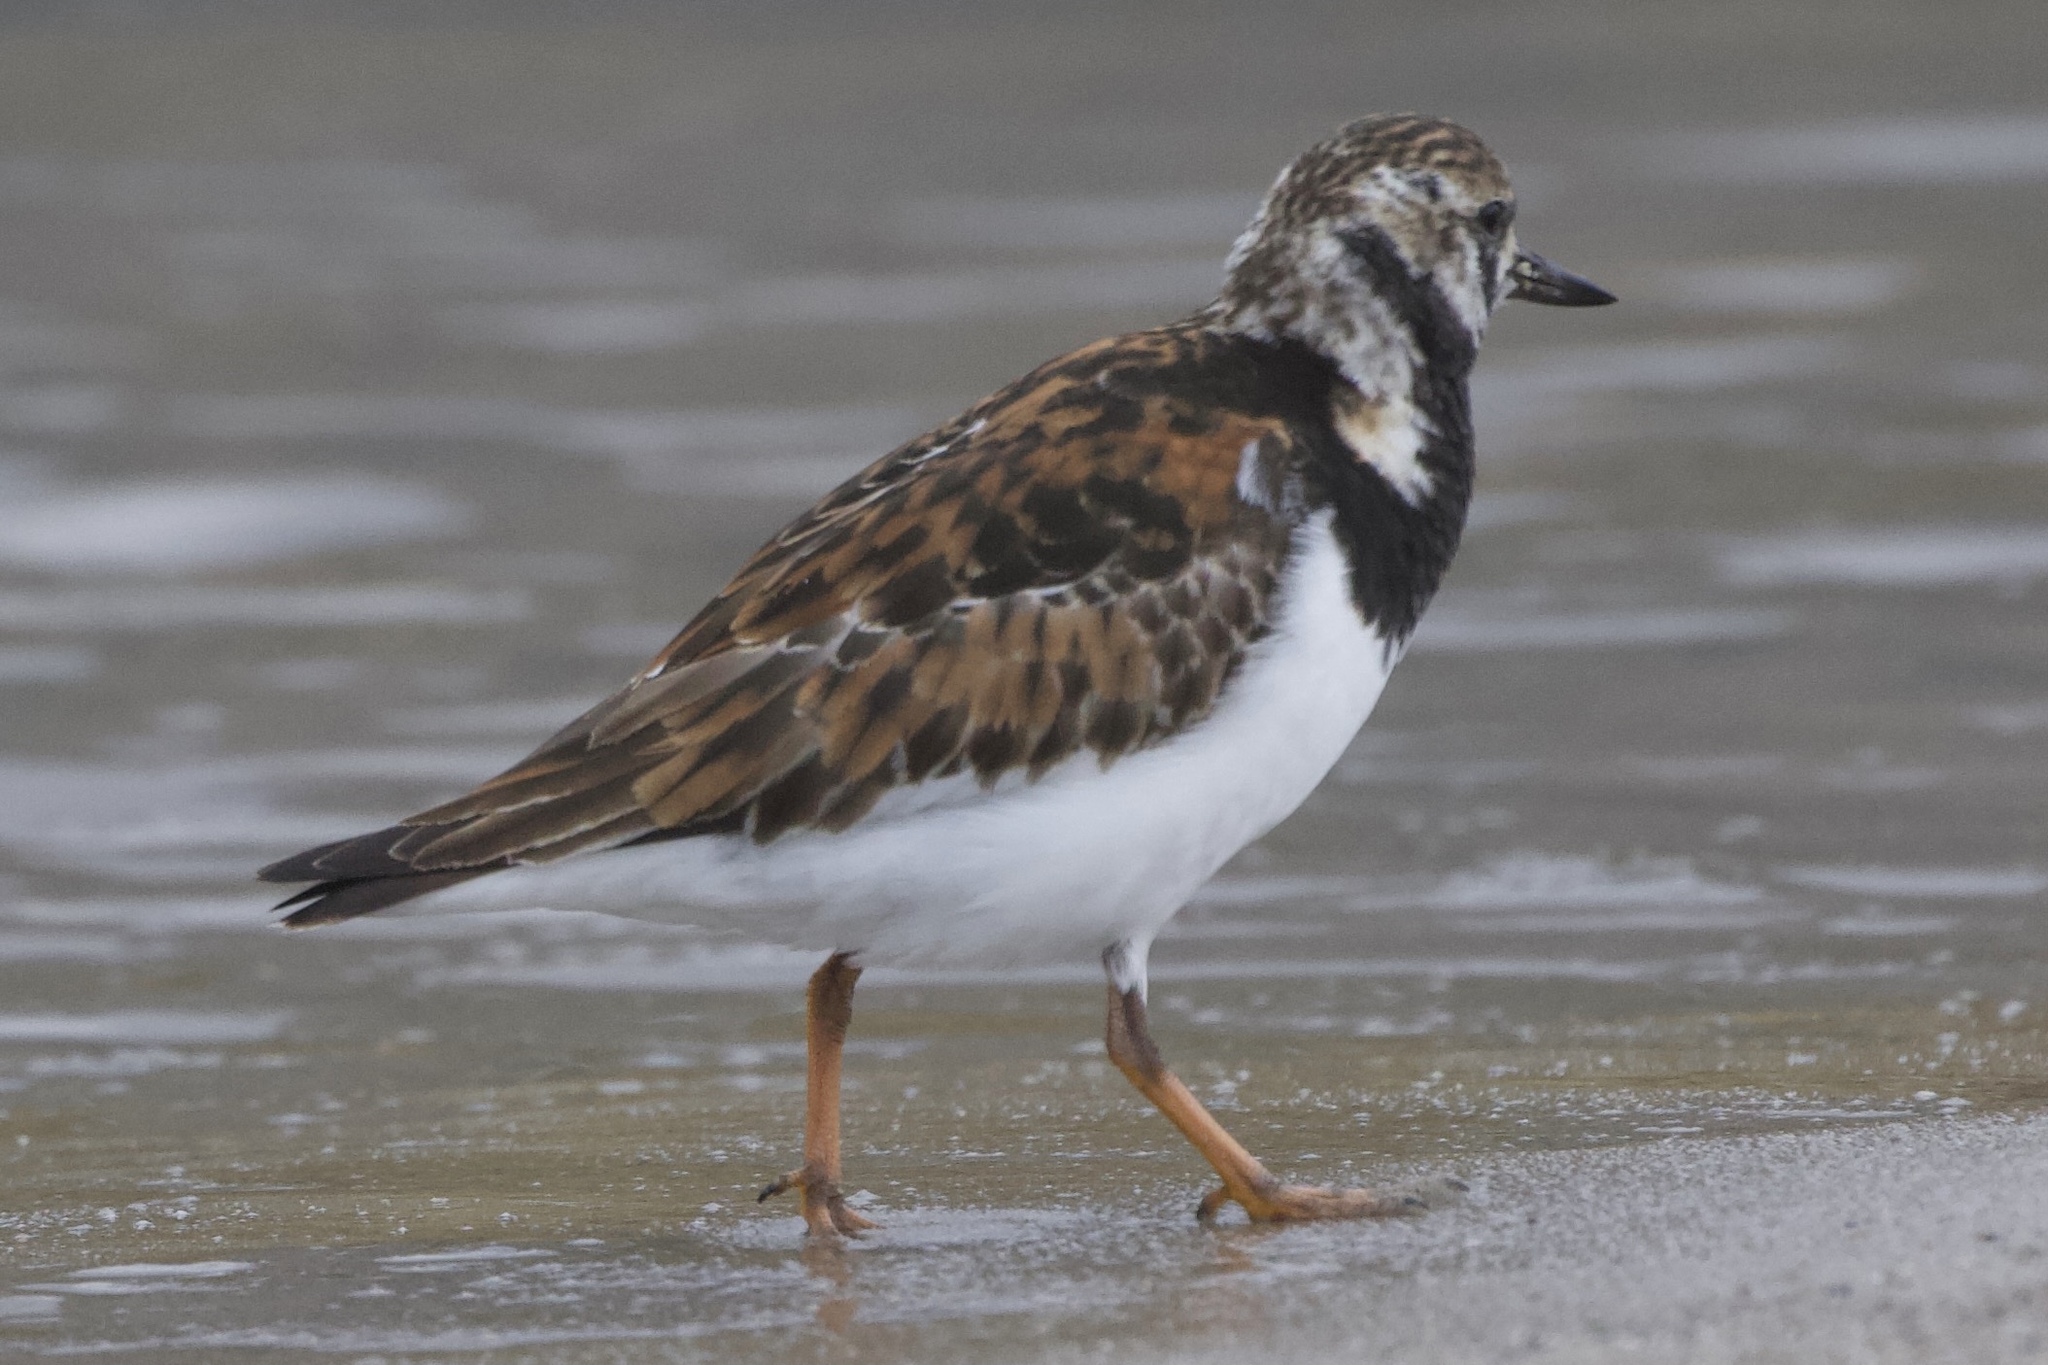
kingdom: Animalia
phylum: Chordata
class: Aves
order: Charadriiformes
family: Scolopacidae
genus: Arenaria
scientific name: Arenaria interpres
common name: Ruddy turnstone
